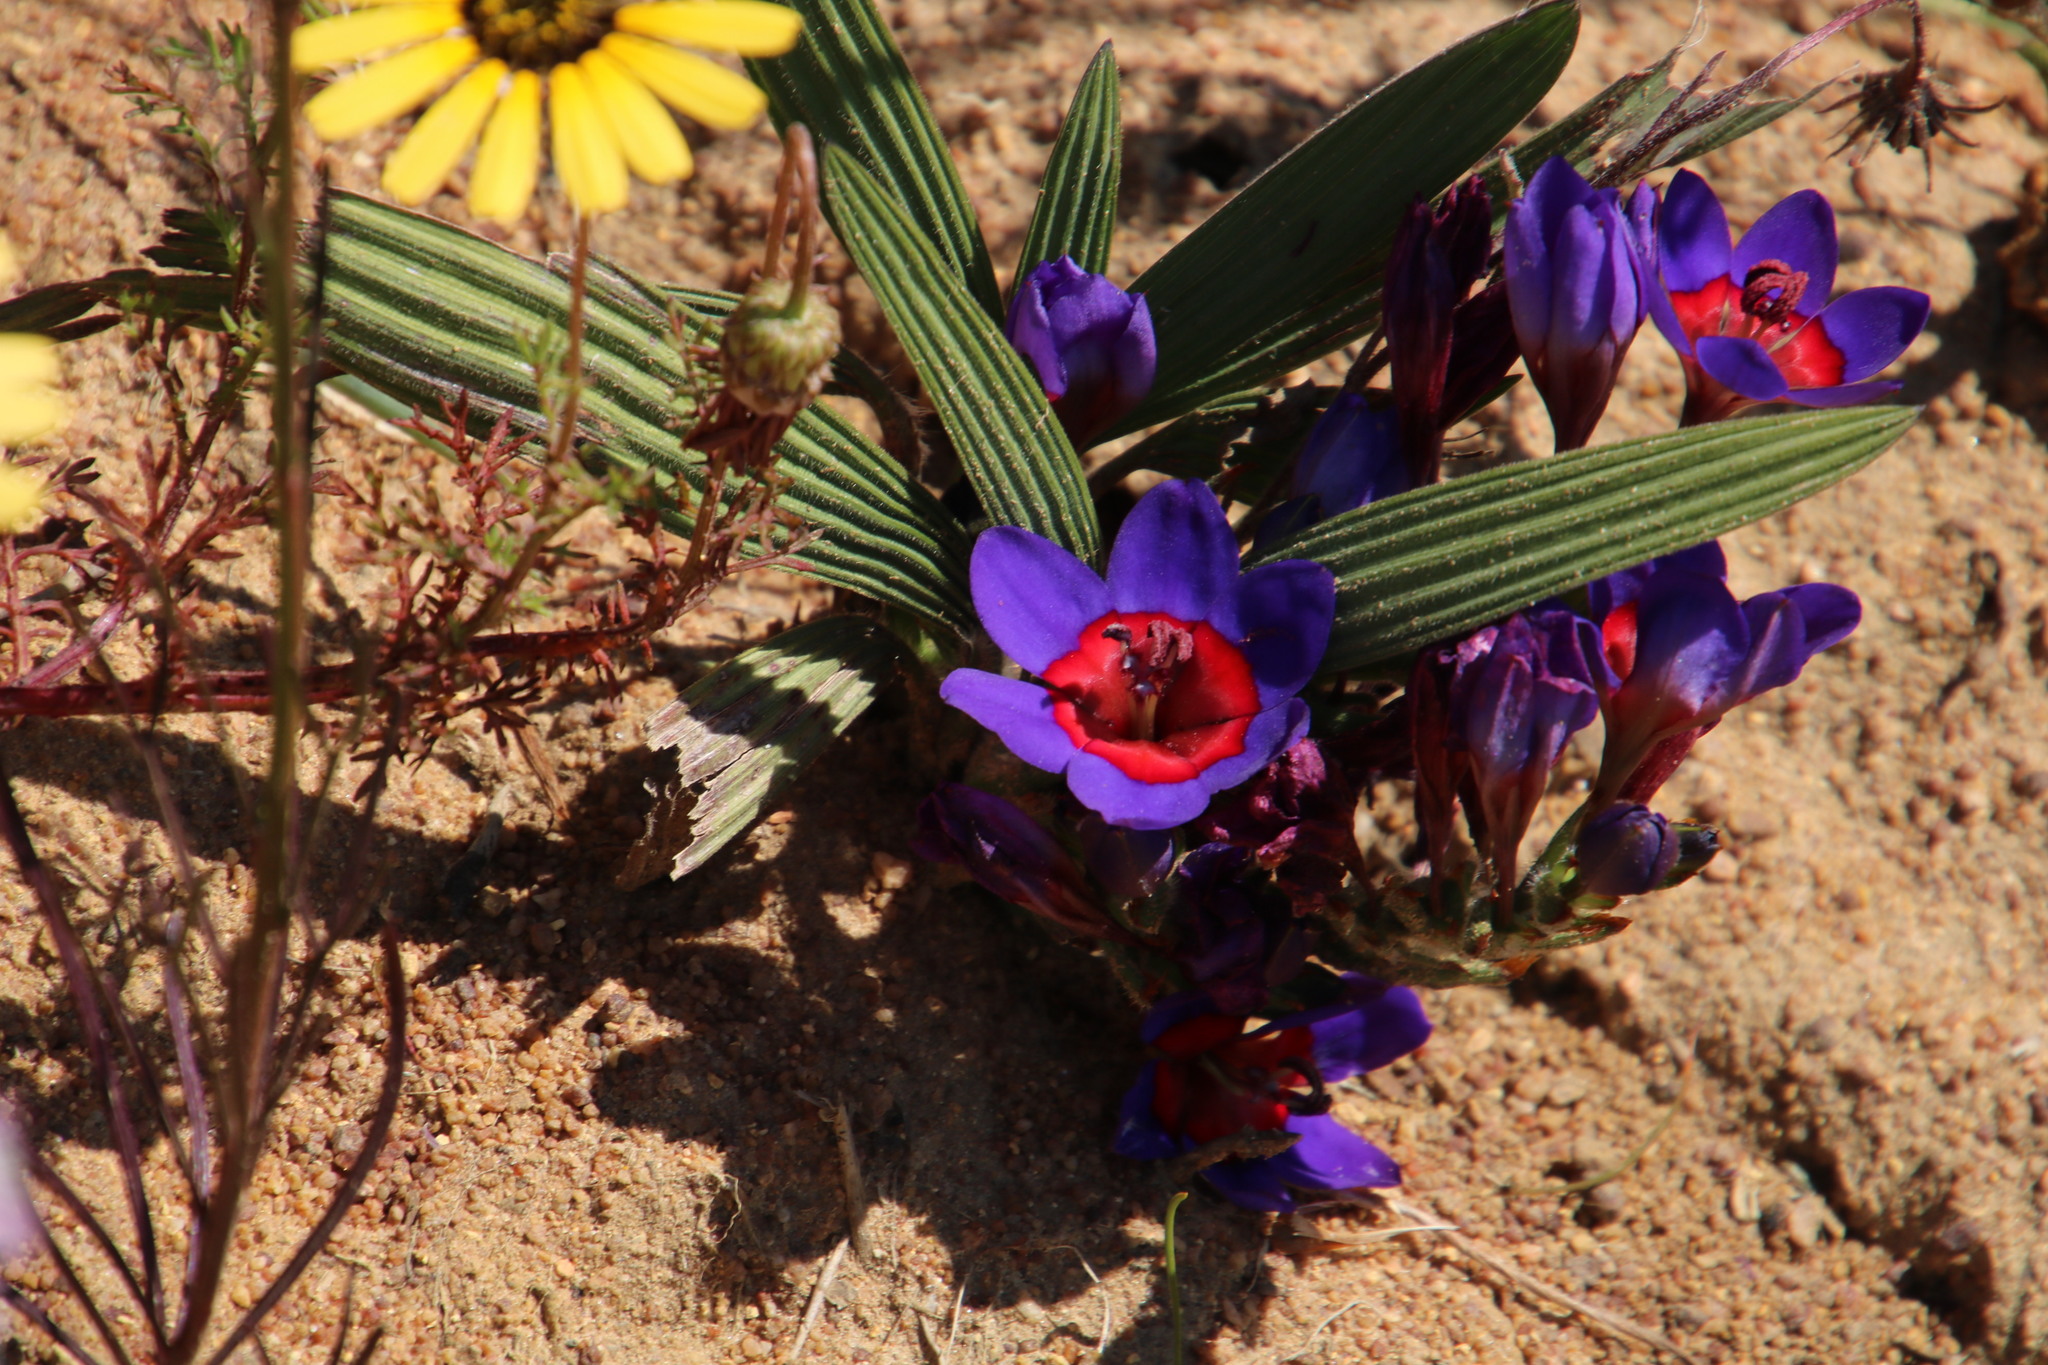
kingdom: Plantae
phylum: Tracheophyta
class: Liliopsida
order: Asparagales
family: Iridaceae
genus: Babiana
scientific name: Babiana rubrocyanea
